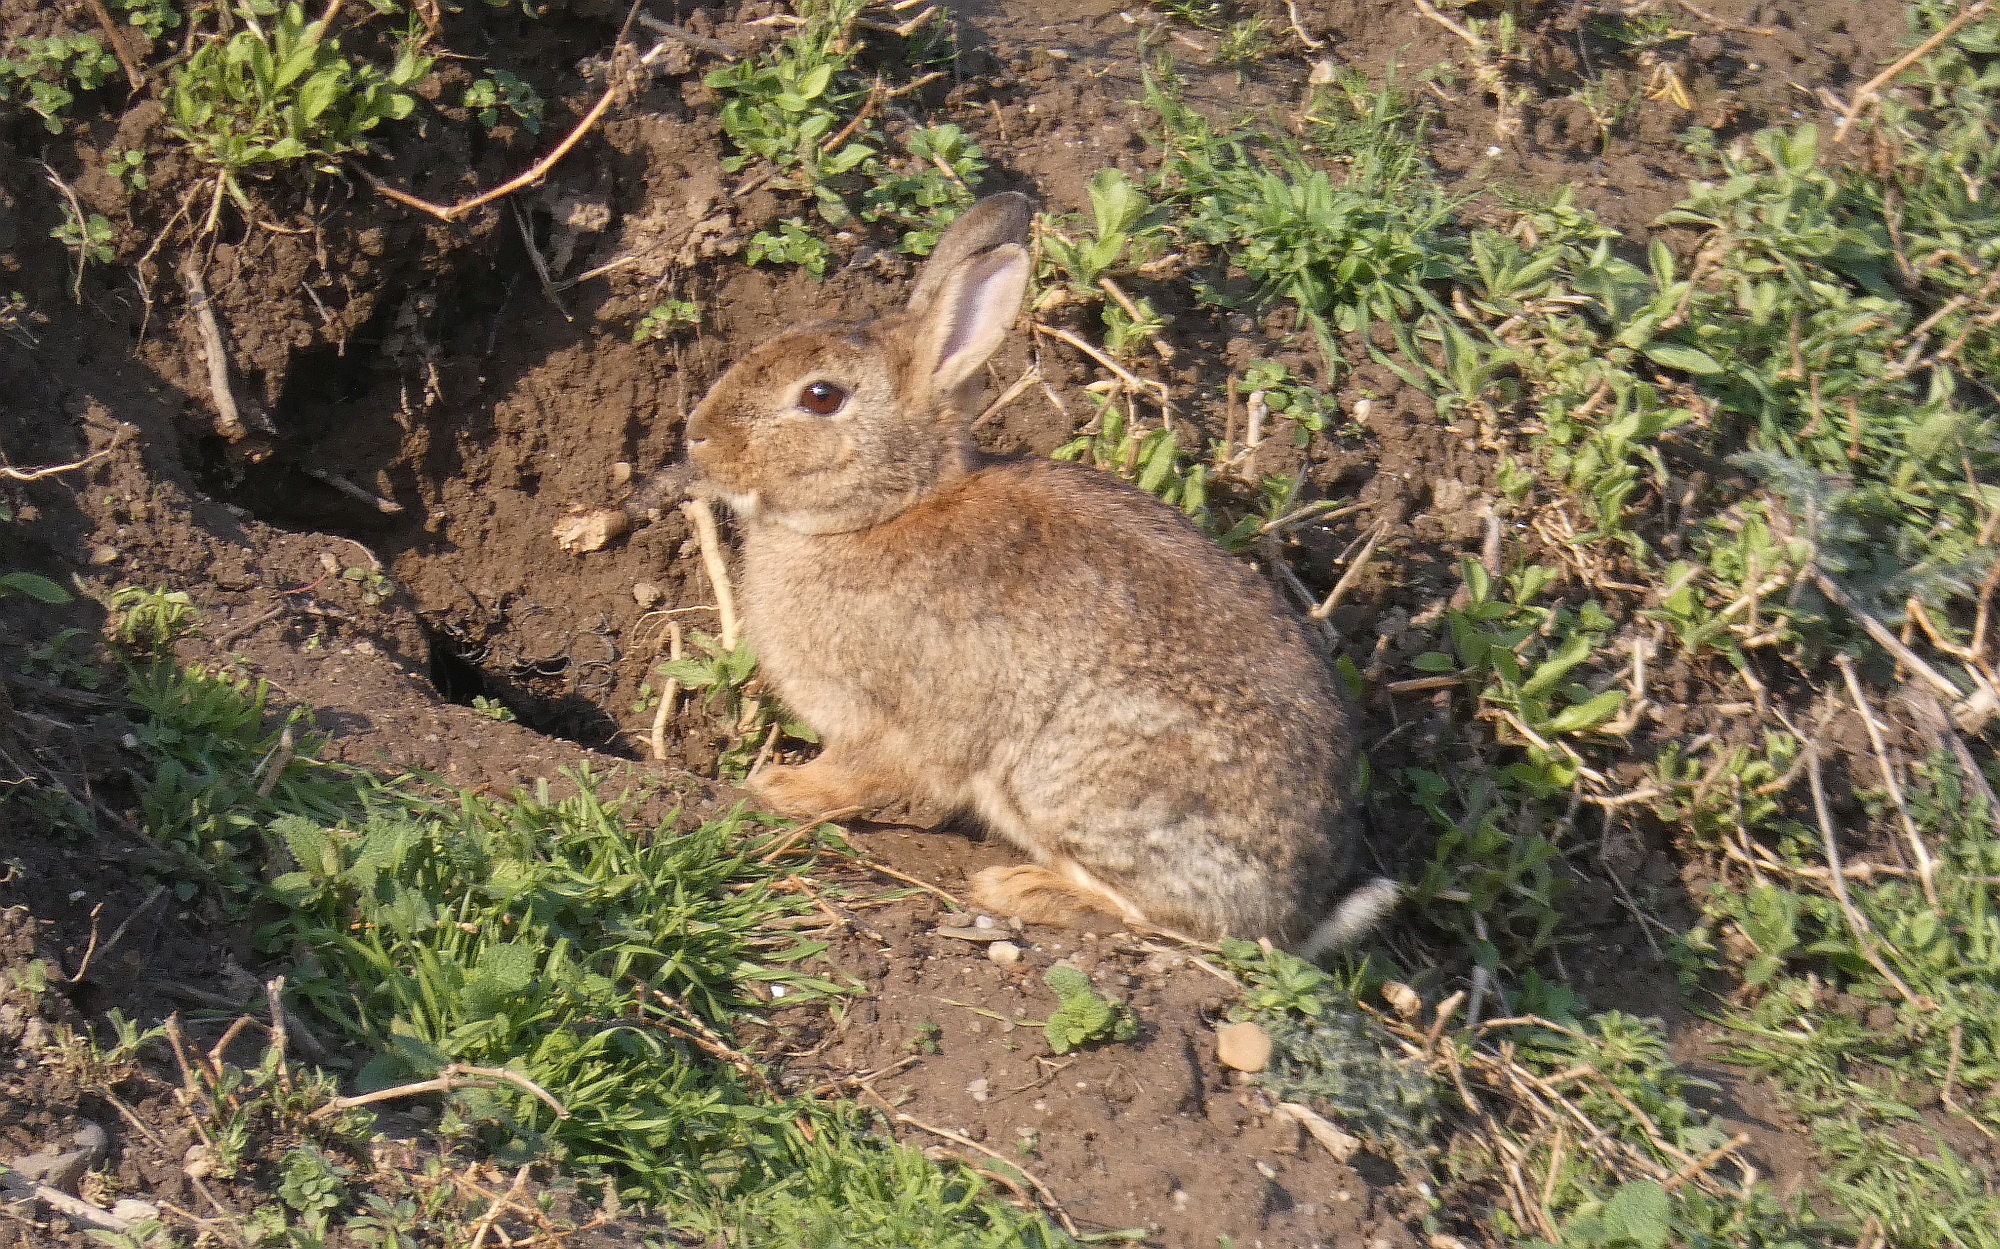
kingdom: Animalia
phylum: Chordata
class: Mammalia
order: Lagomorpha
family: Leporidae
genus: Oryctolagus
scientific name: Oryctolagus cuniculus
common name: European rabbit
